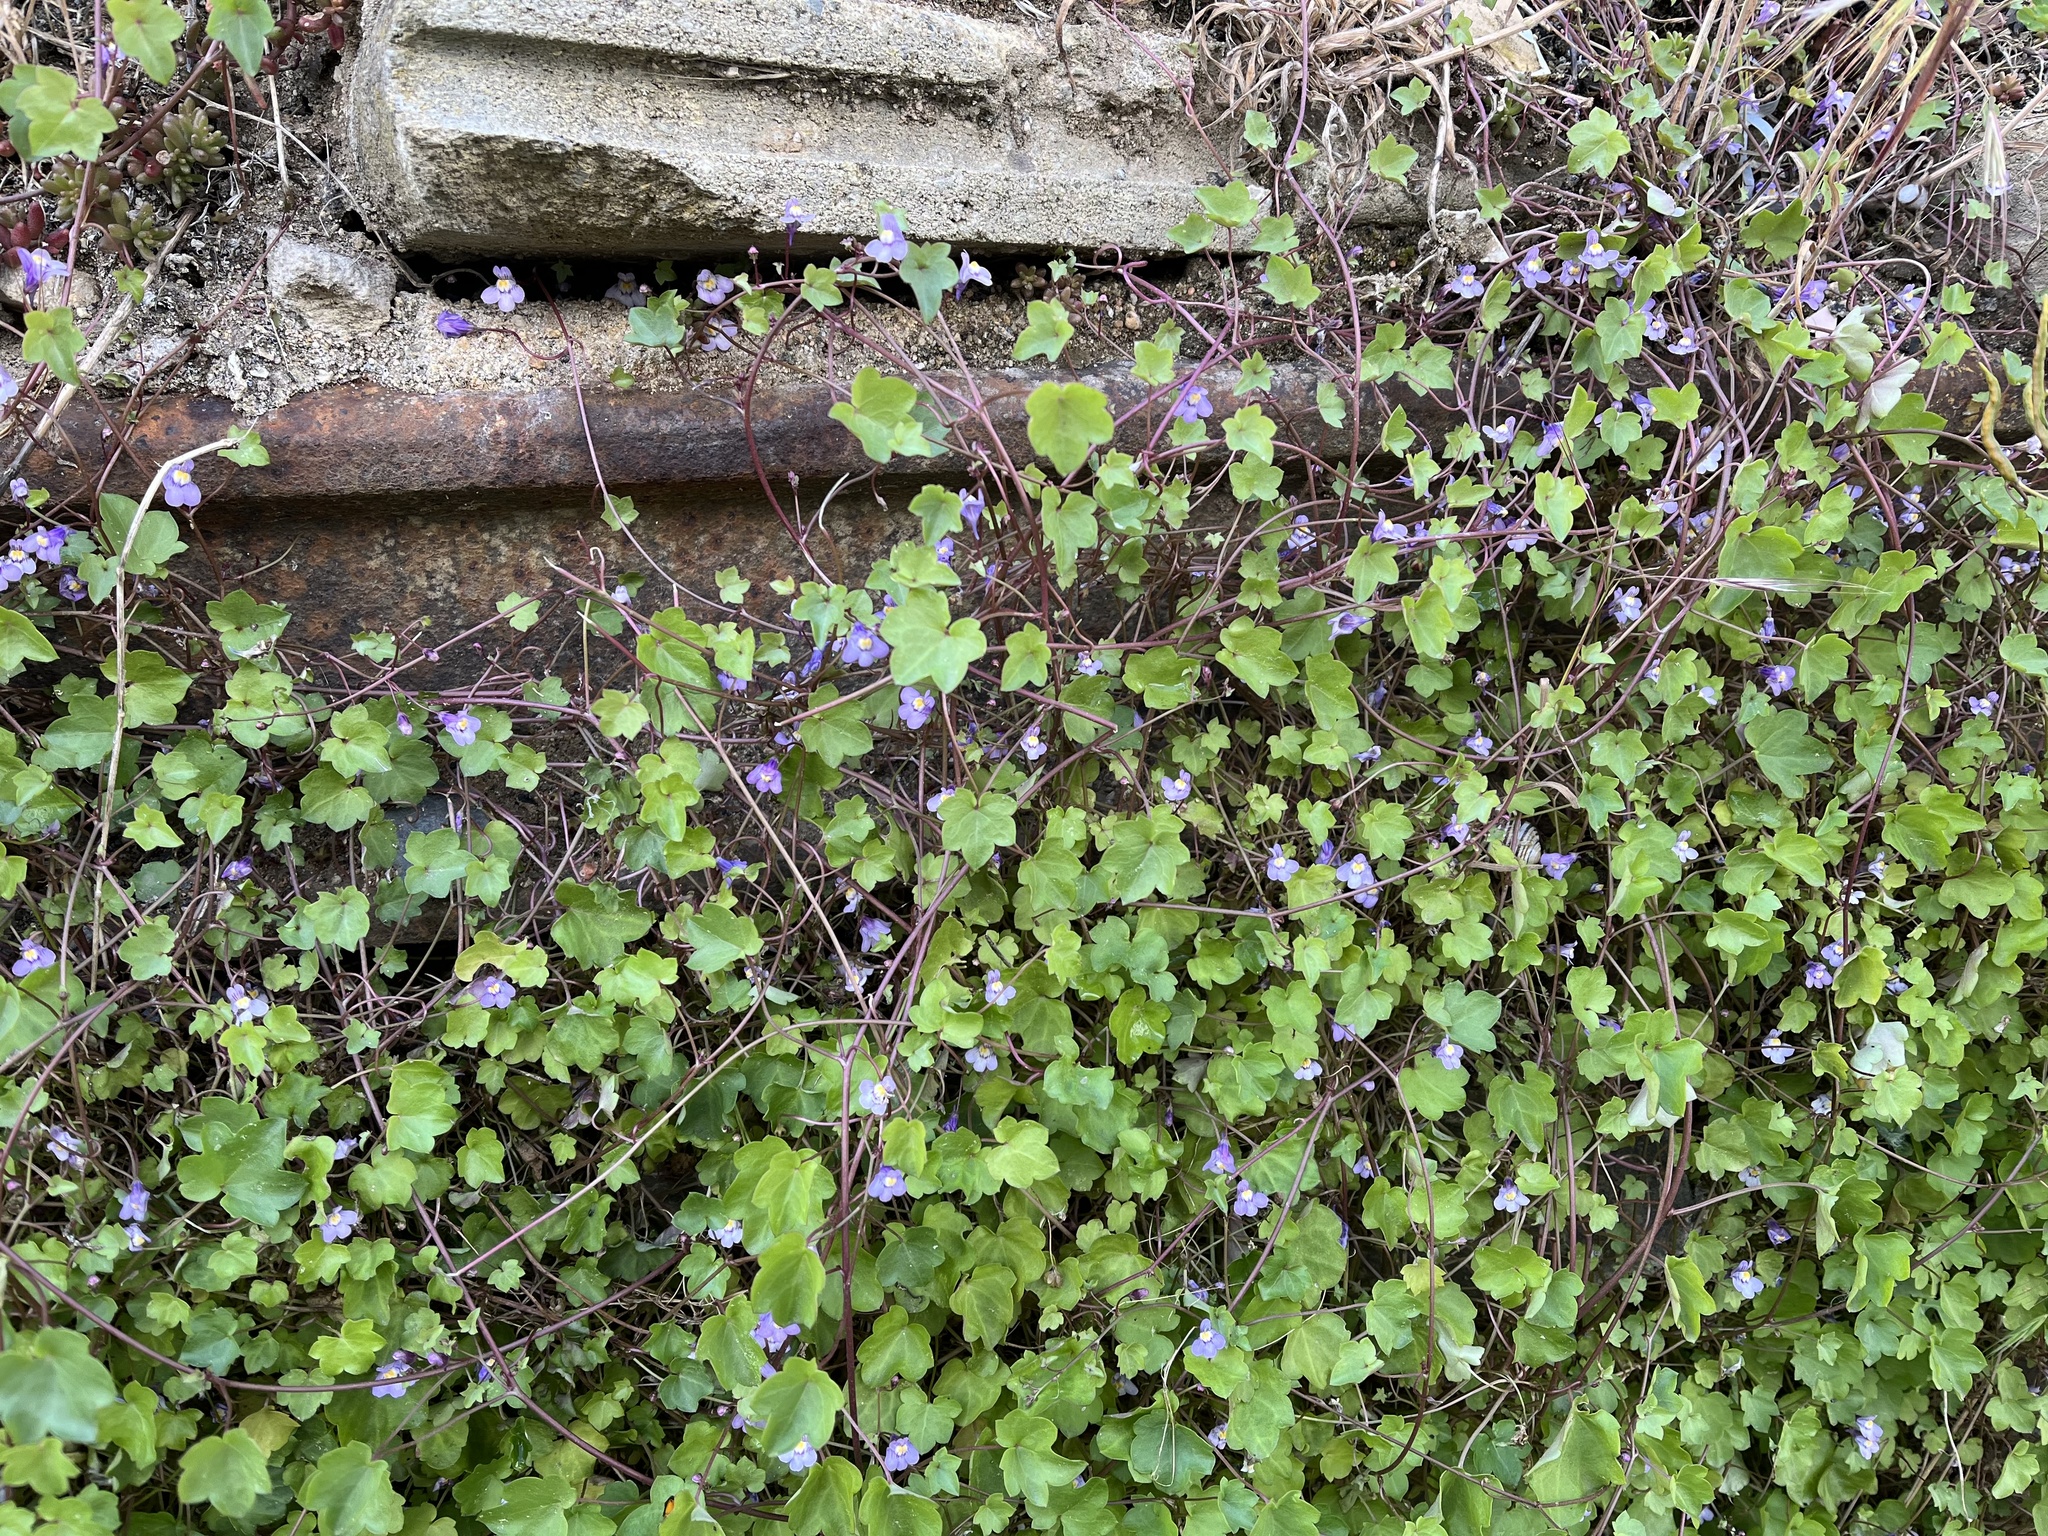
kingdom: Plantae
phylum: Tracheophyta
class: Magnoliopsida
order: Lamiales
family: Plantaginaceae
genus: Cymbalaria
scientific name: Cymbalaria muralis
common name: Ivy-leaved toadflax
